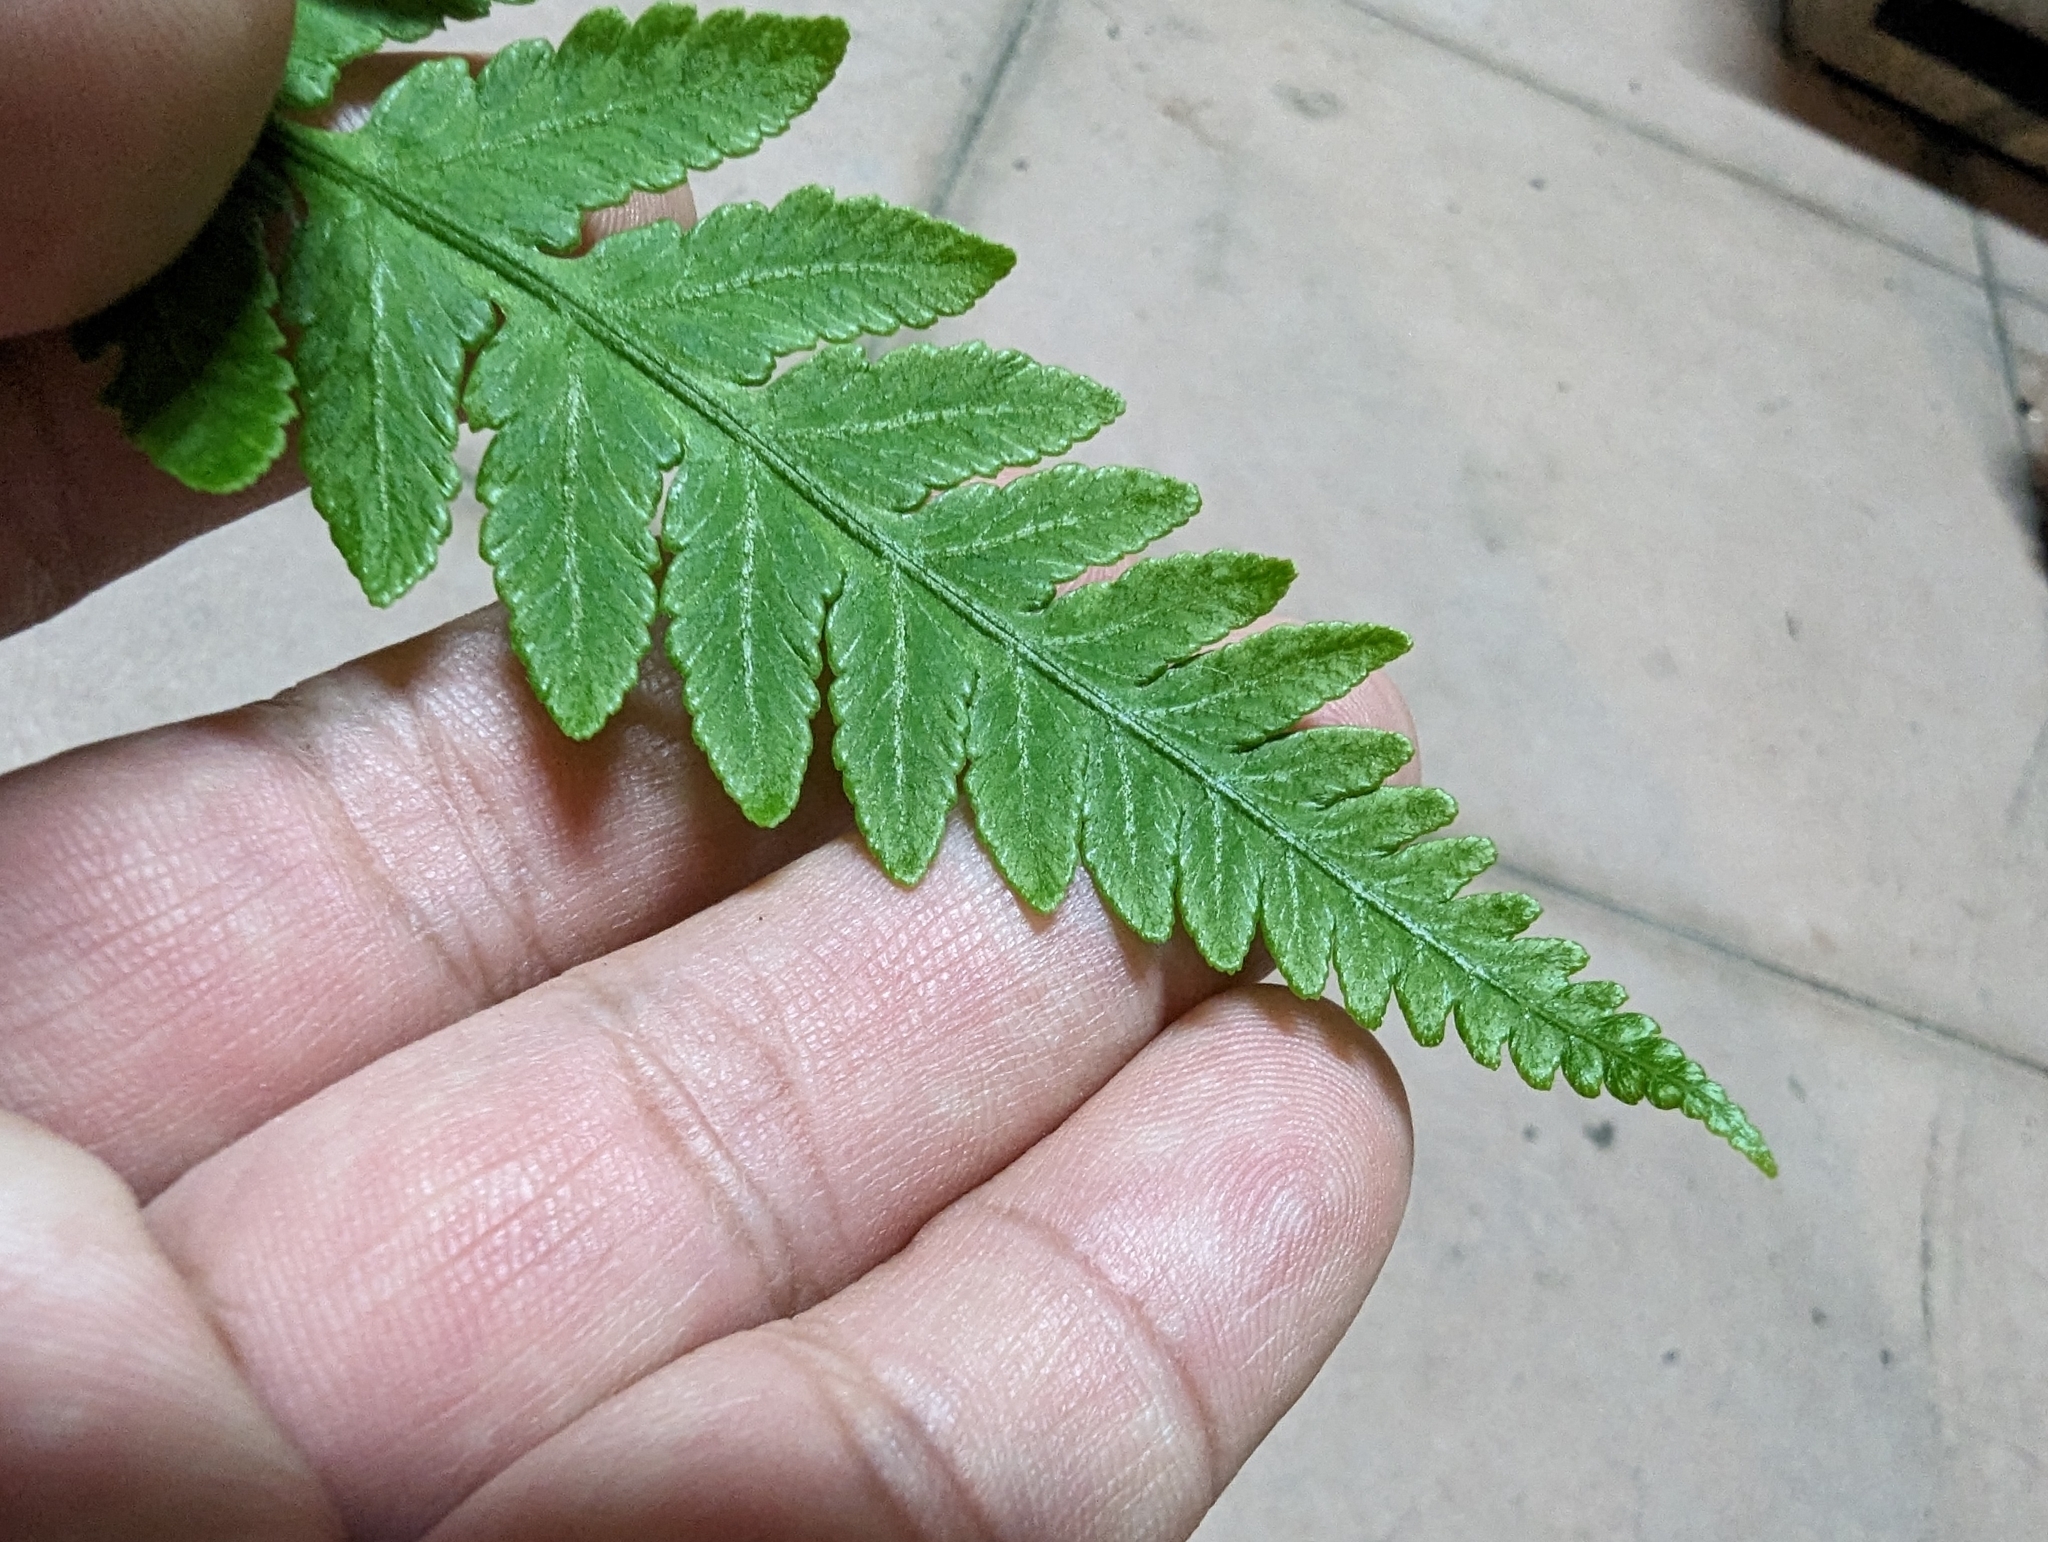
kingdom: Plantae
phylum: Tracheophyta
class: Polypodiopsida
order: Polypodiales
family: Athyriaceae
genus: Deparia
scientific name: Deparia petersenii
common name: Japanese false spleenwort
